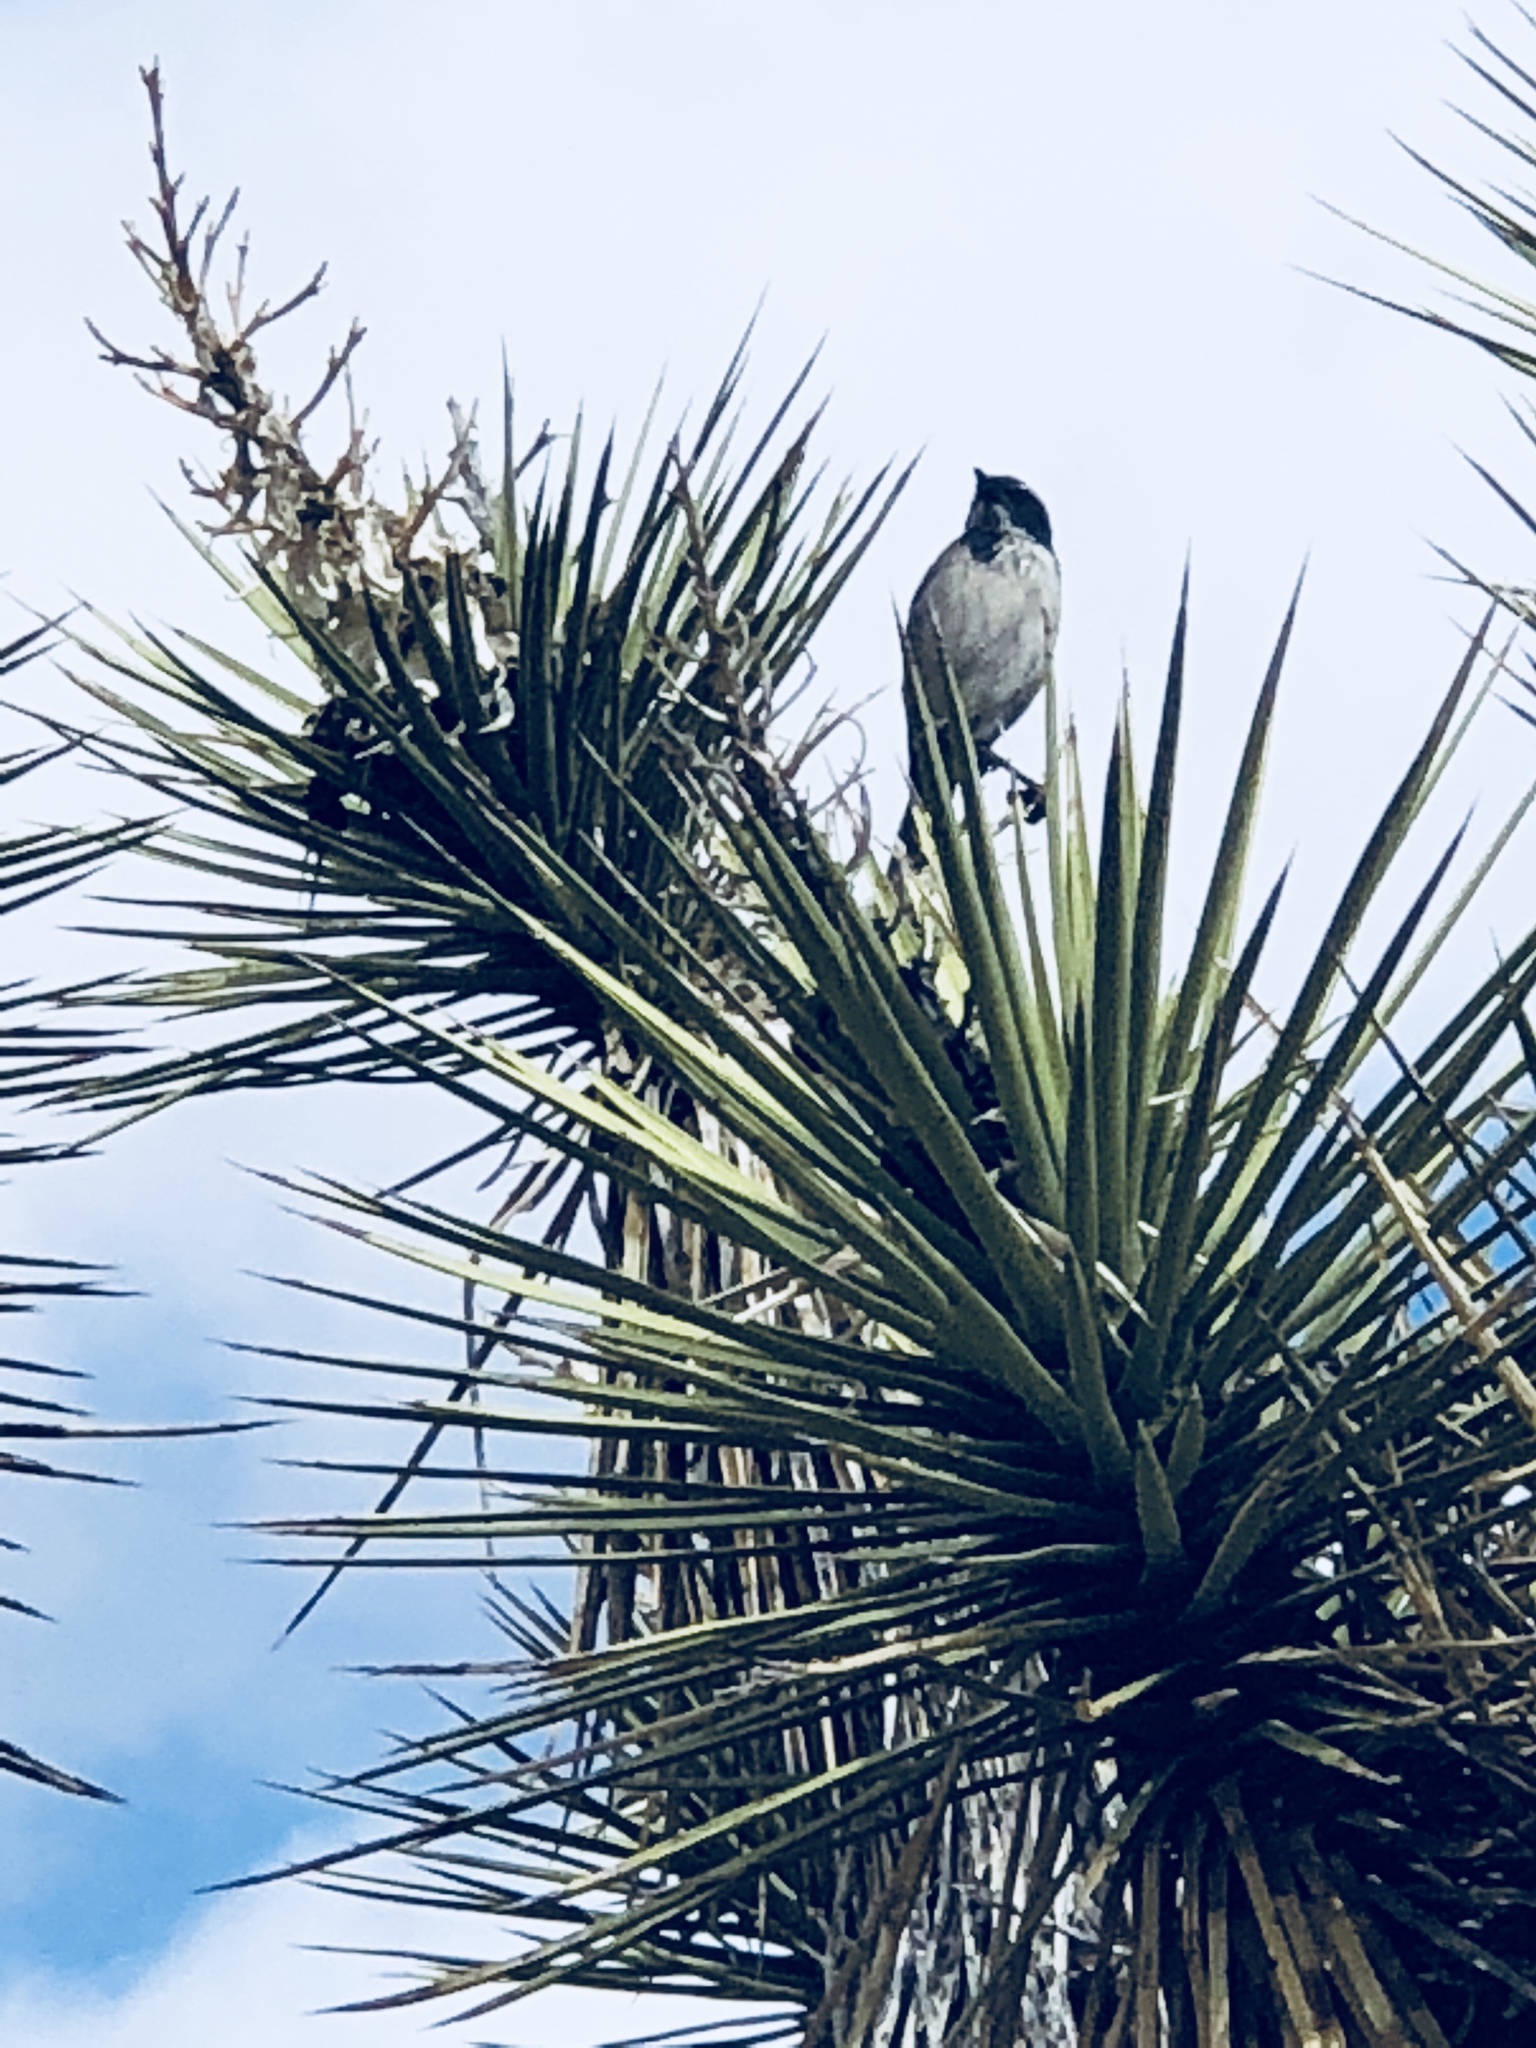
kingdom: Animalia
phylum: Chordata
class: Aves
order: Passeriformes
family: Corvidae
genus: Aphelocoma
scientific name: Aphelocoma californica
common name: California scrub-jay
